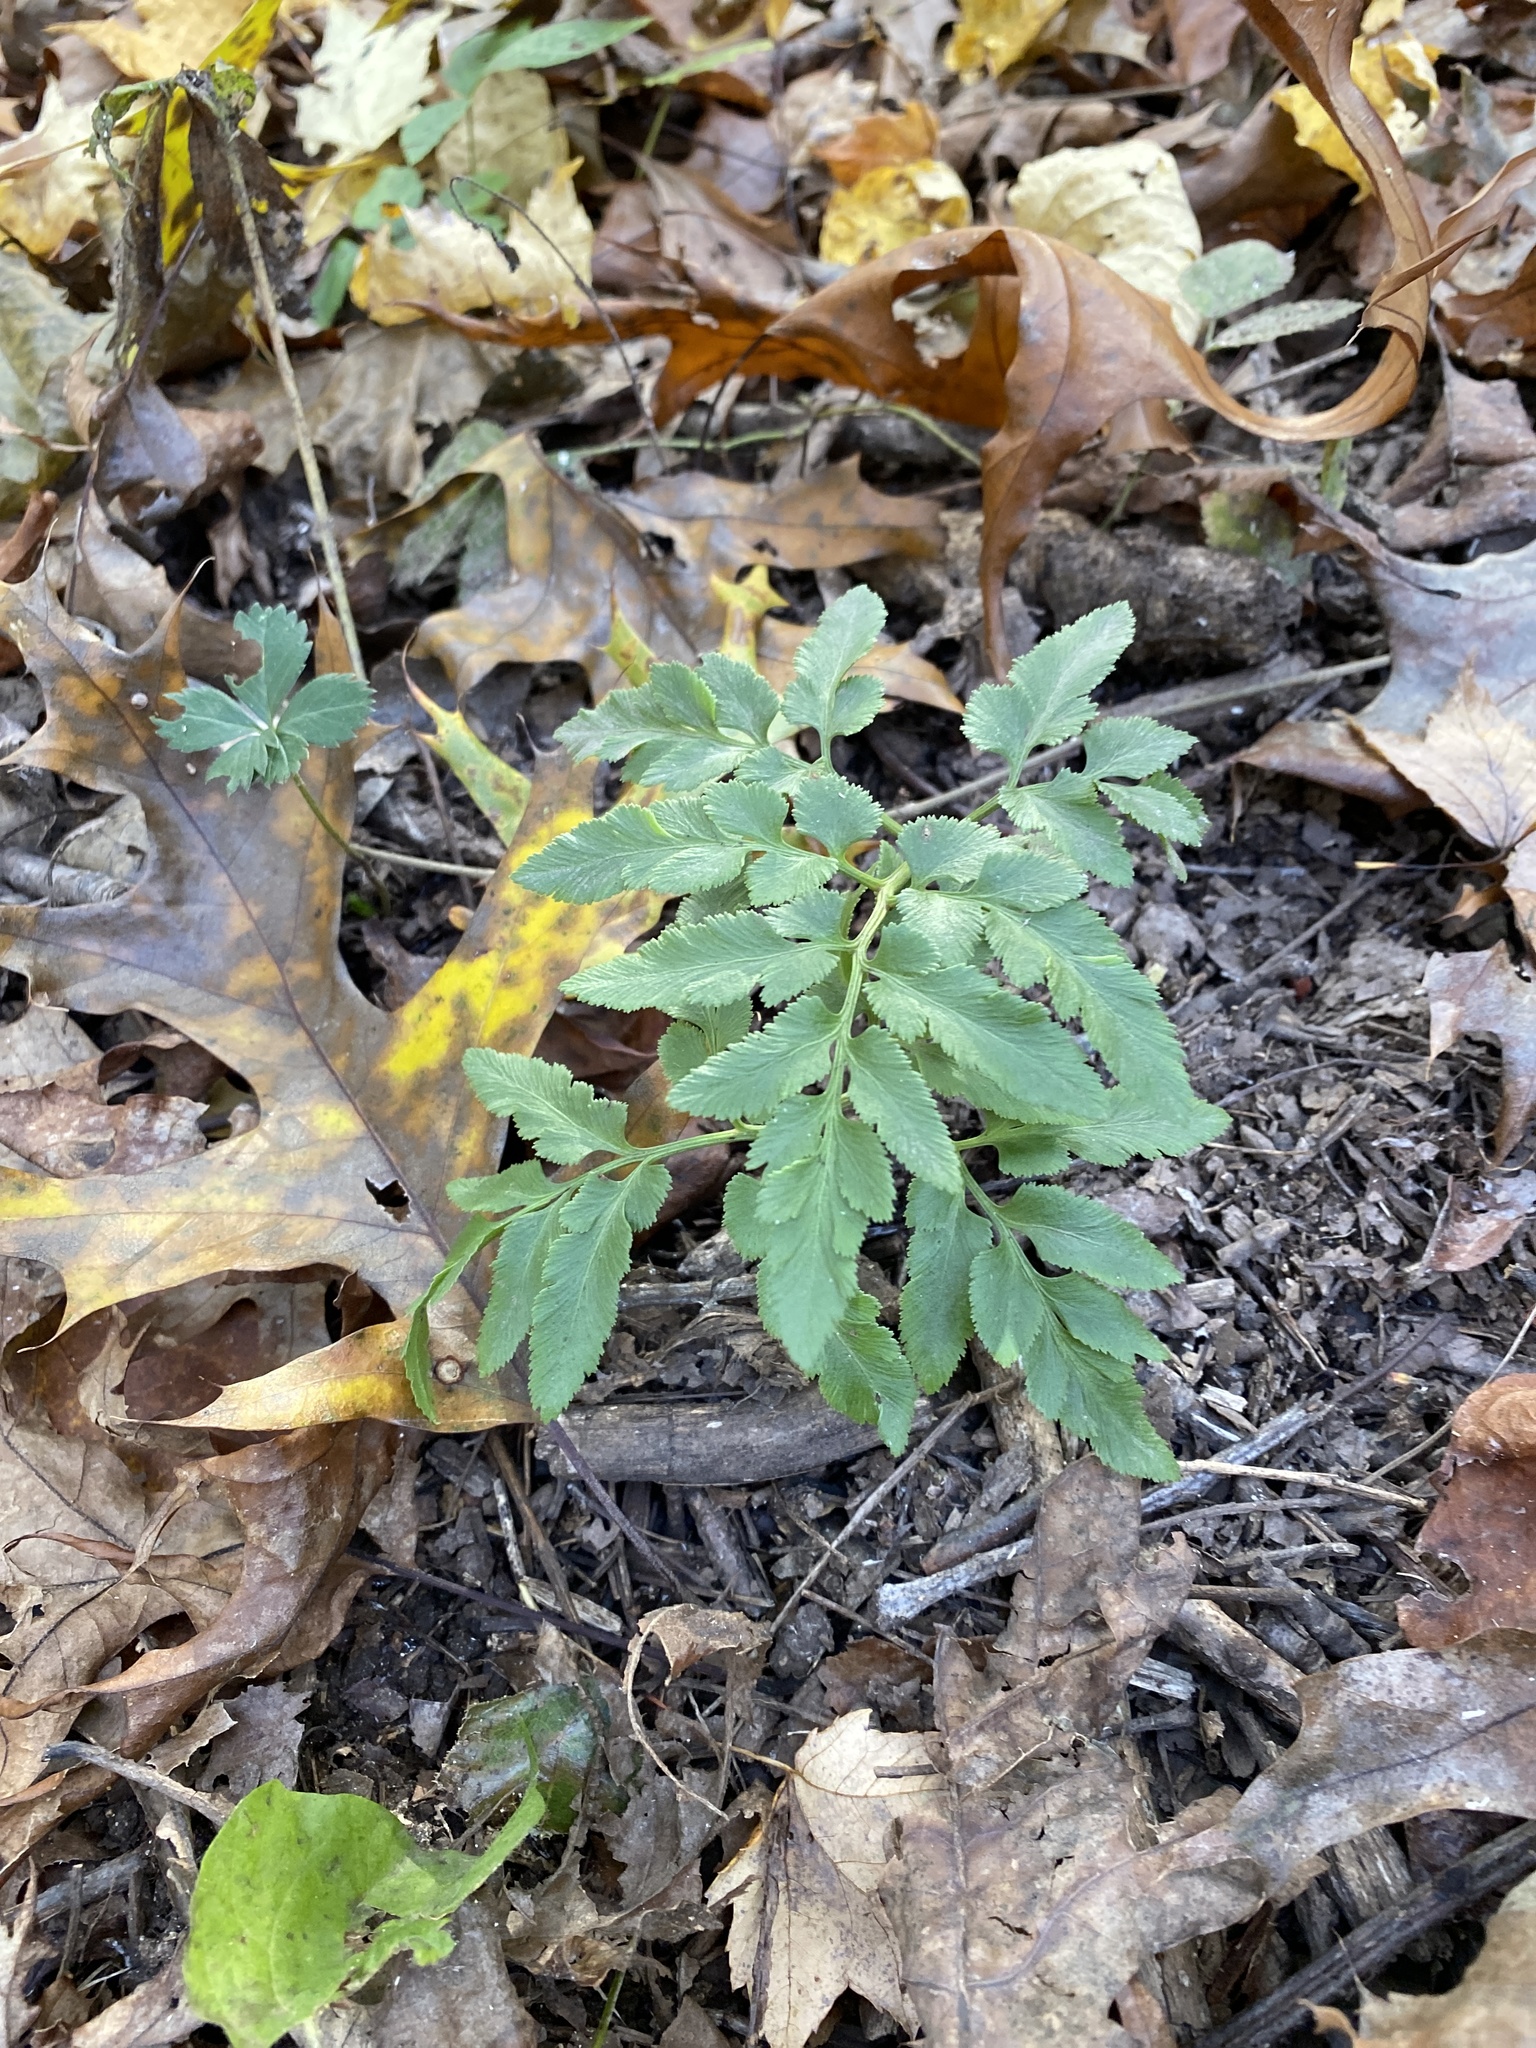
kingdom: Plantae
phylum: Tracheophyta
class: Polypodiopsida
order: Ophioglossales
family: Ophioglossaceae
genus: Sceptridium
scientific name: Sceptridium dissectum
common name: Cut-leaved grapefern
